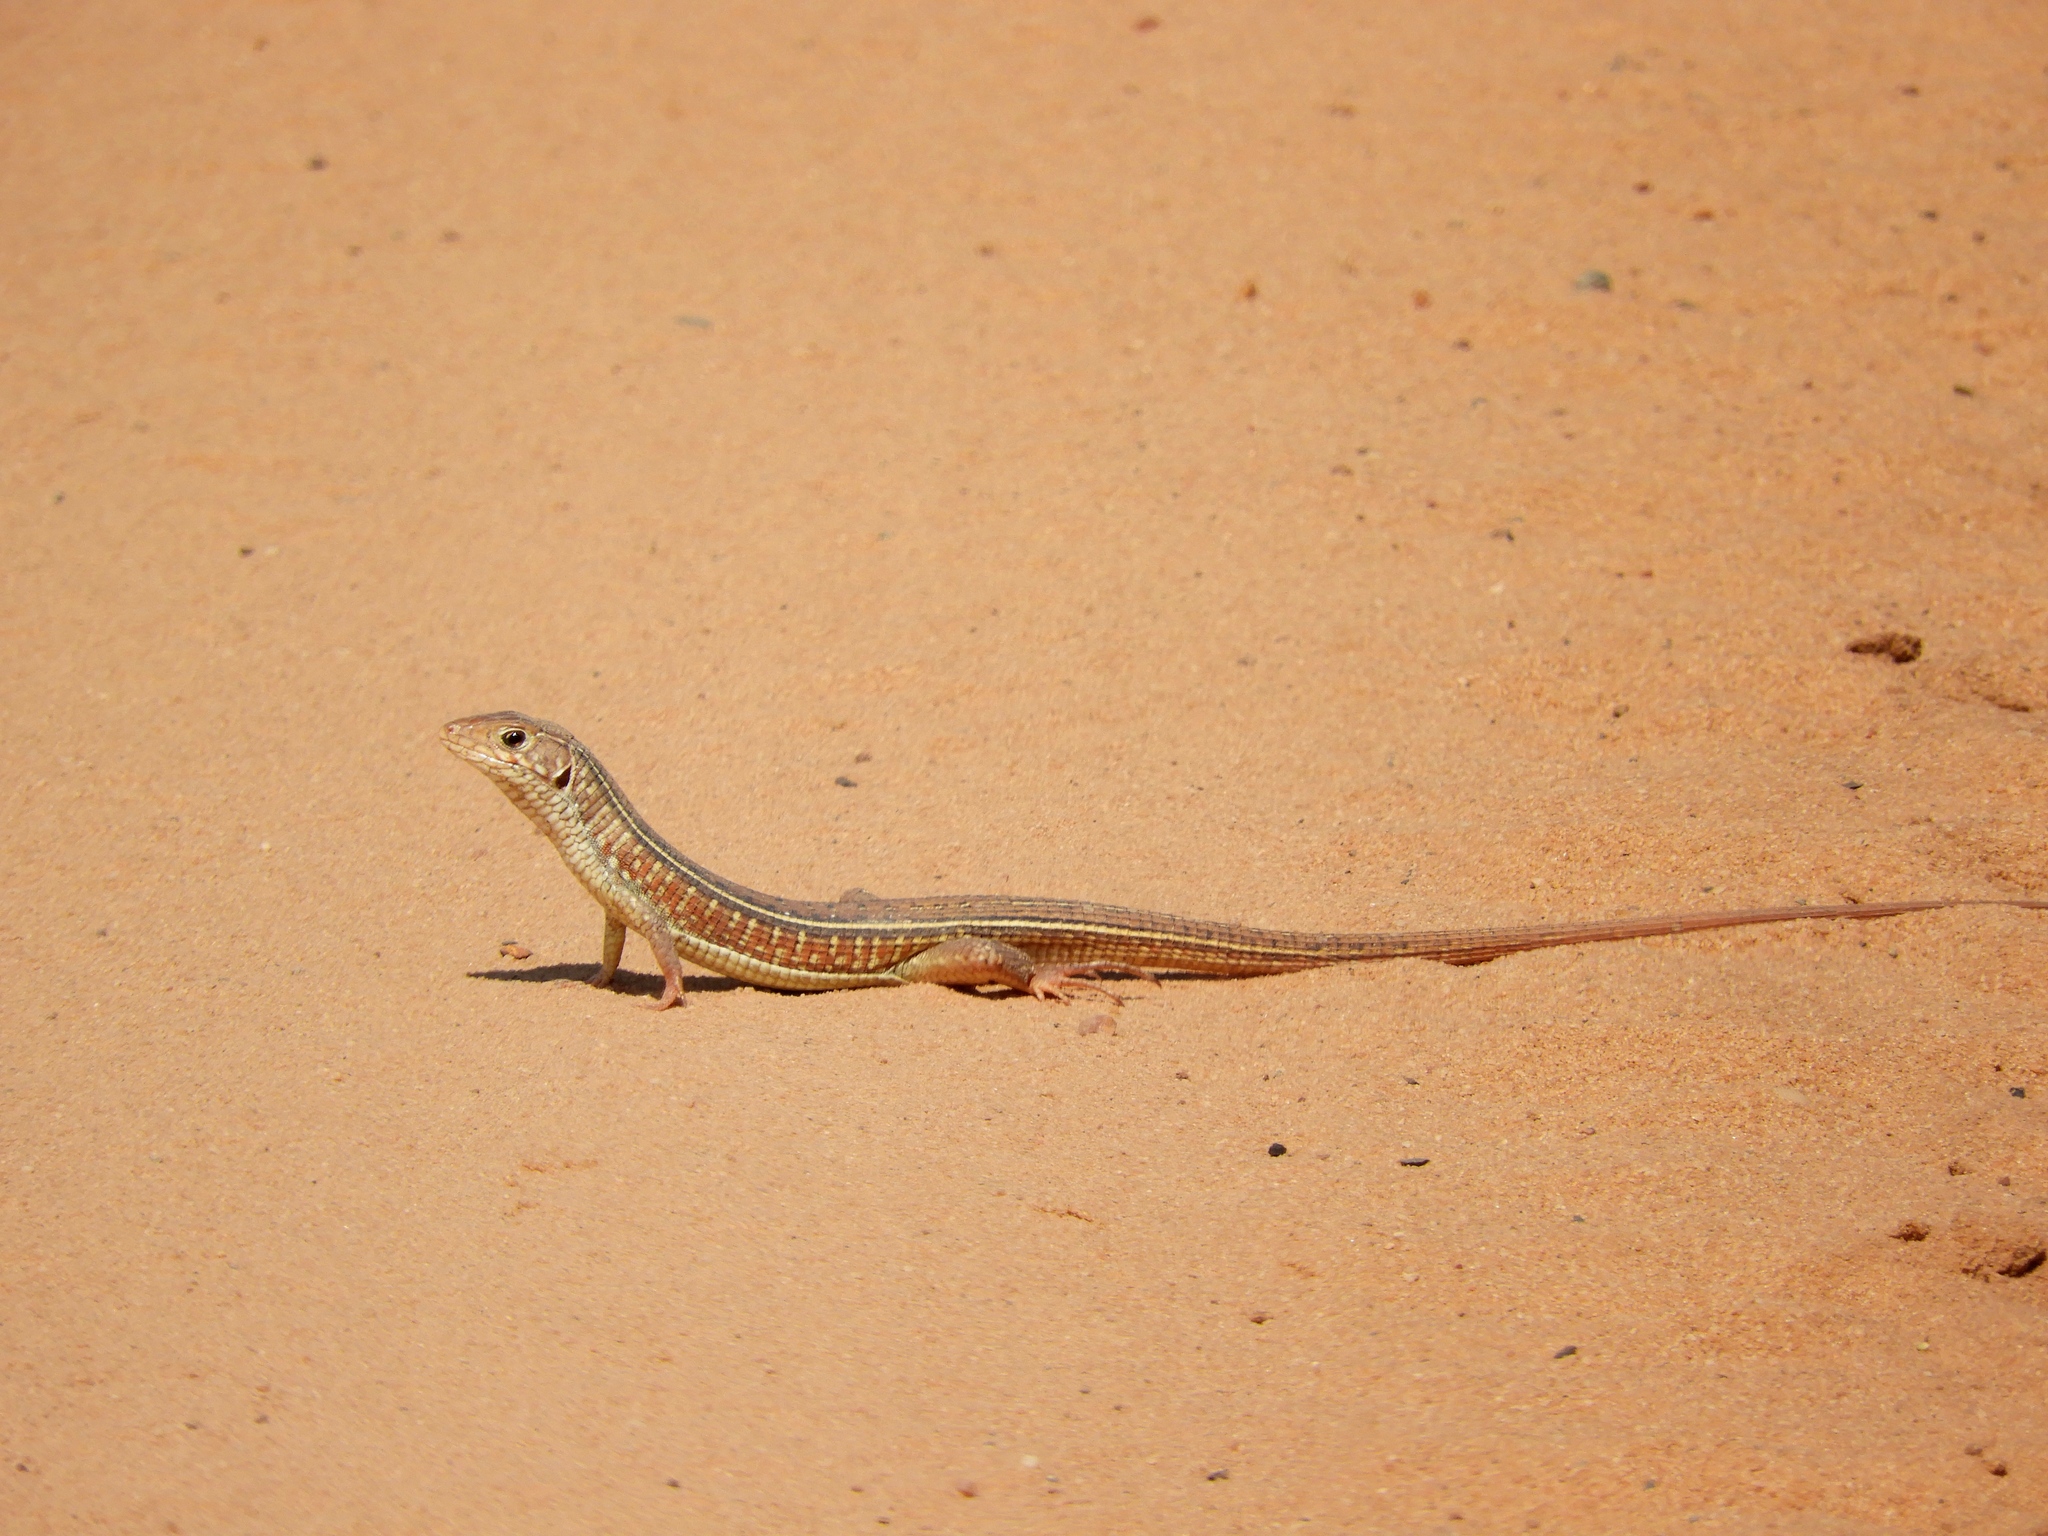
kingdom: Animalia
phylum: Chordata
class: Squamata
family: Gerrhosauridae
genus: Gerrhosaurus
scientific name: Gerrhosaurus nigrolineatus
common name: Black-lined plated lizard
